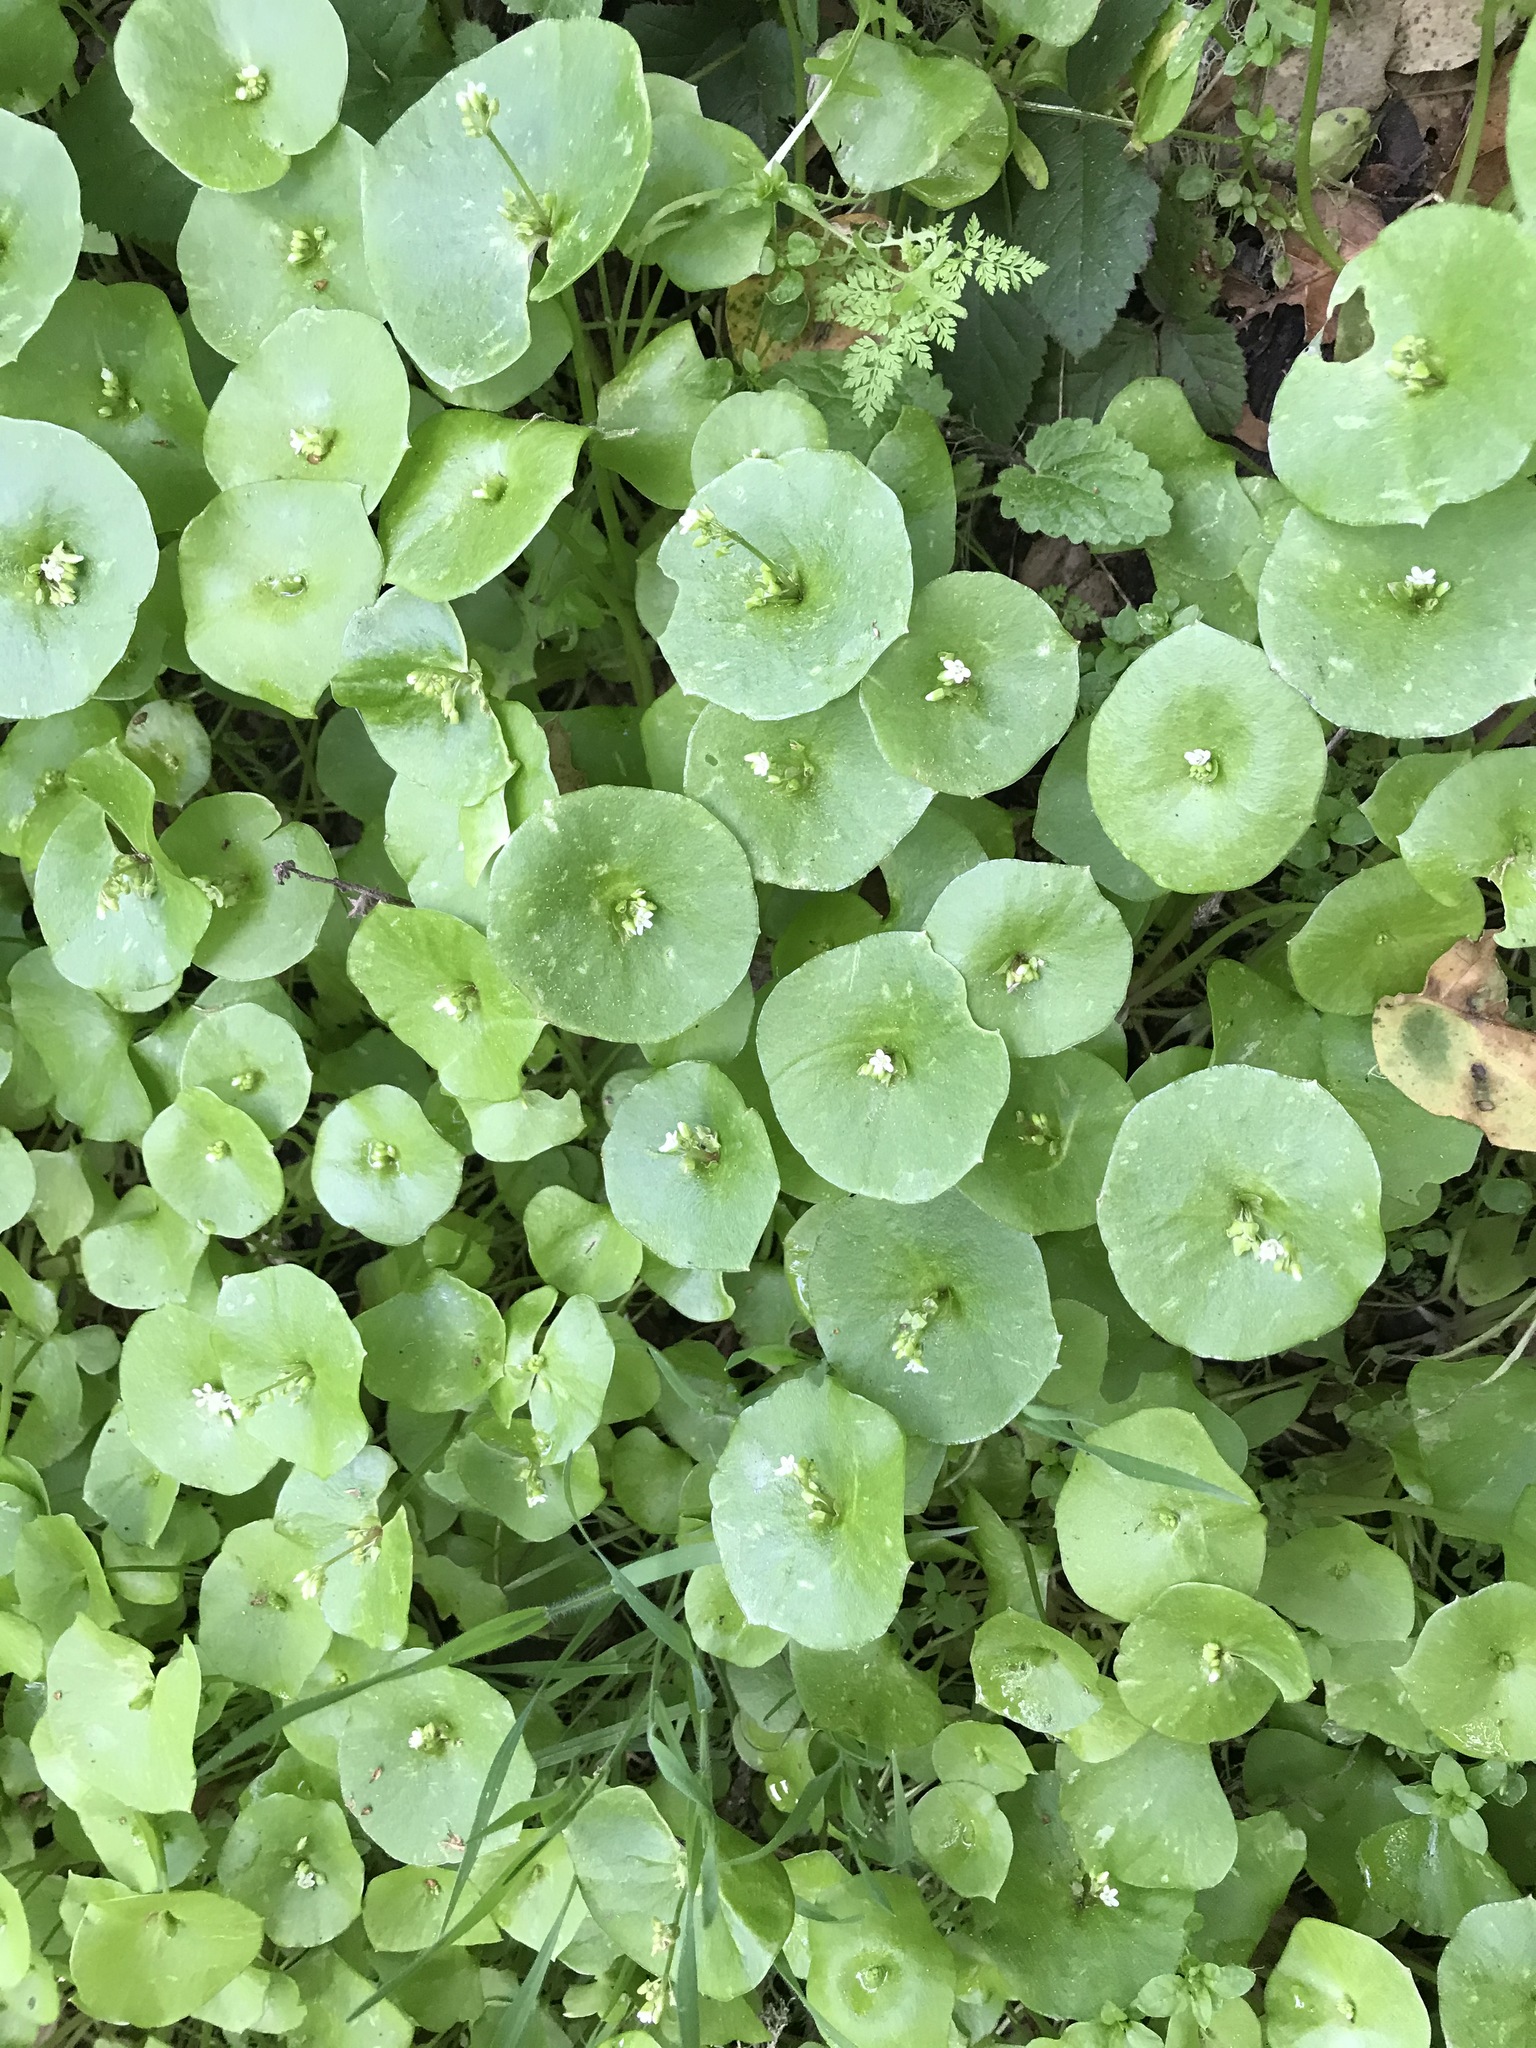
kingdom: Plantae
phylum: Tracheophyta
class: Magnoliopsida
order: Caryophyllales
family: Montiaceae
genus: Claytonia
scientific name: Claytonia perfoliata
